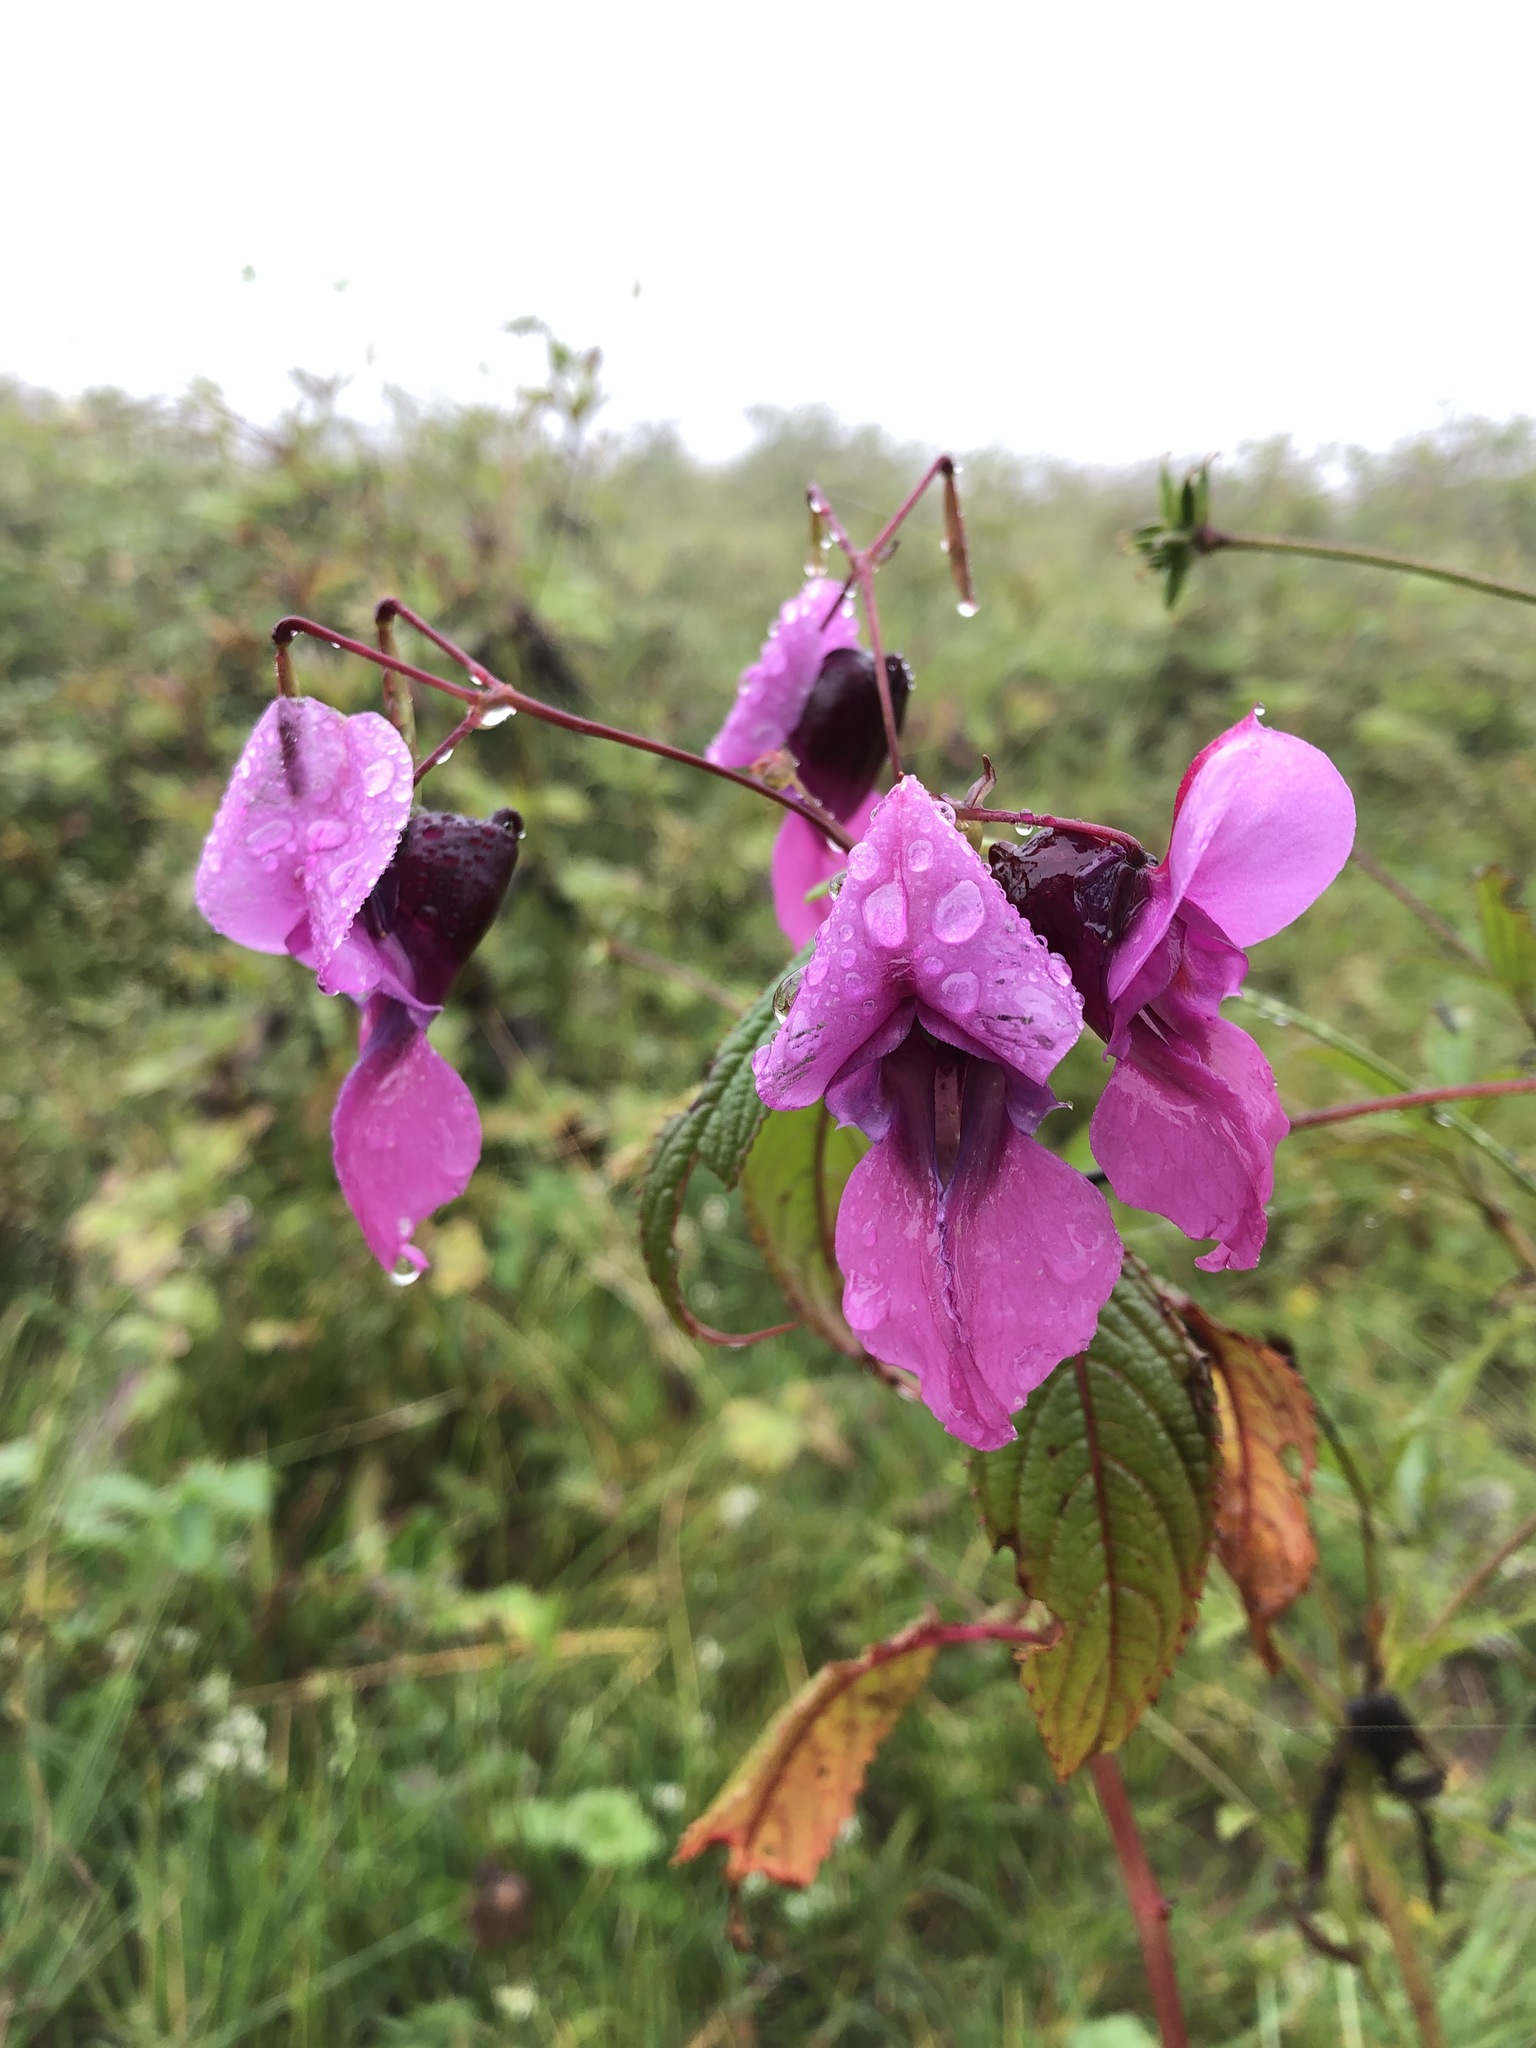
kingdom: Plantae
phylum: Tracheophyta
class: Magnoliopsida
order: Ericales
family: Balsaminaceae
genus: Impatiens
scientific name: Impatiens sulcata
